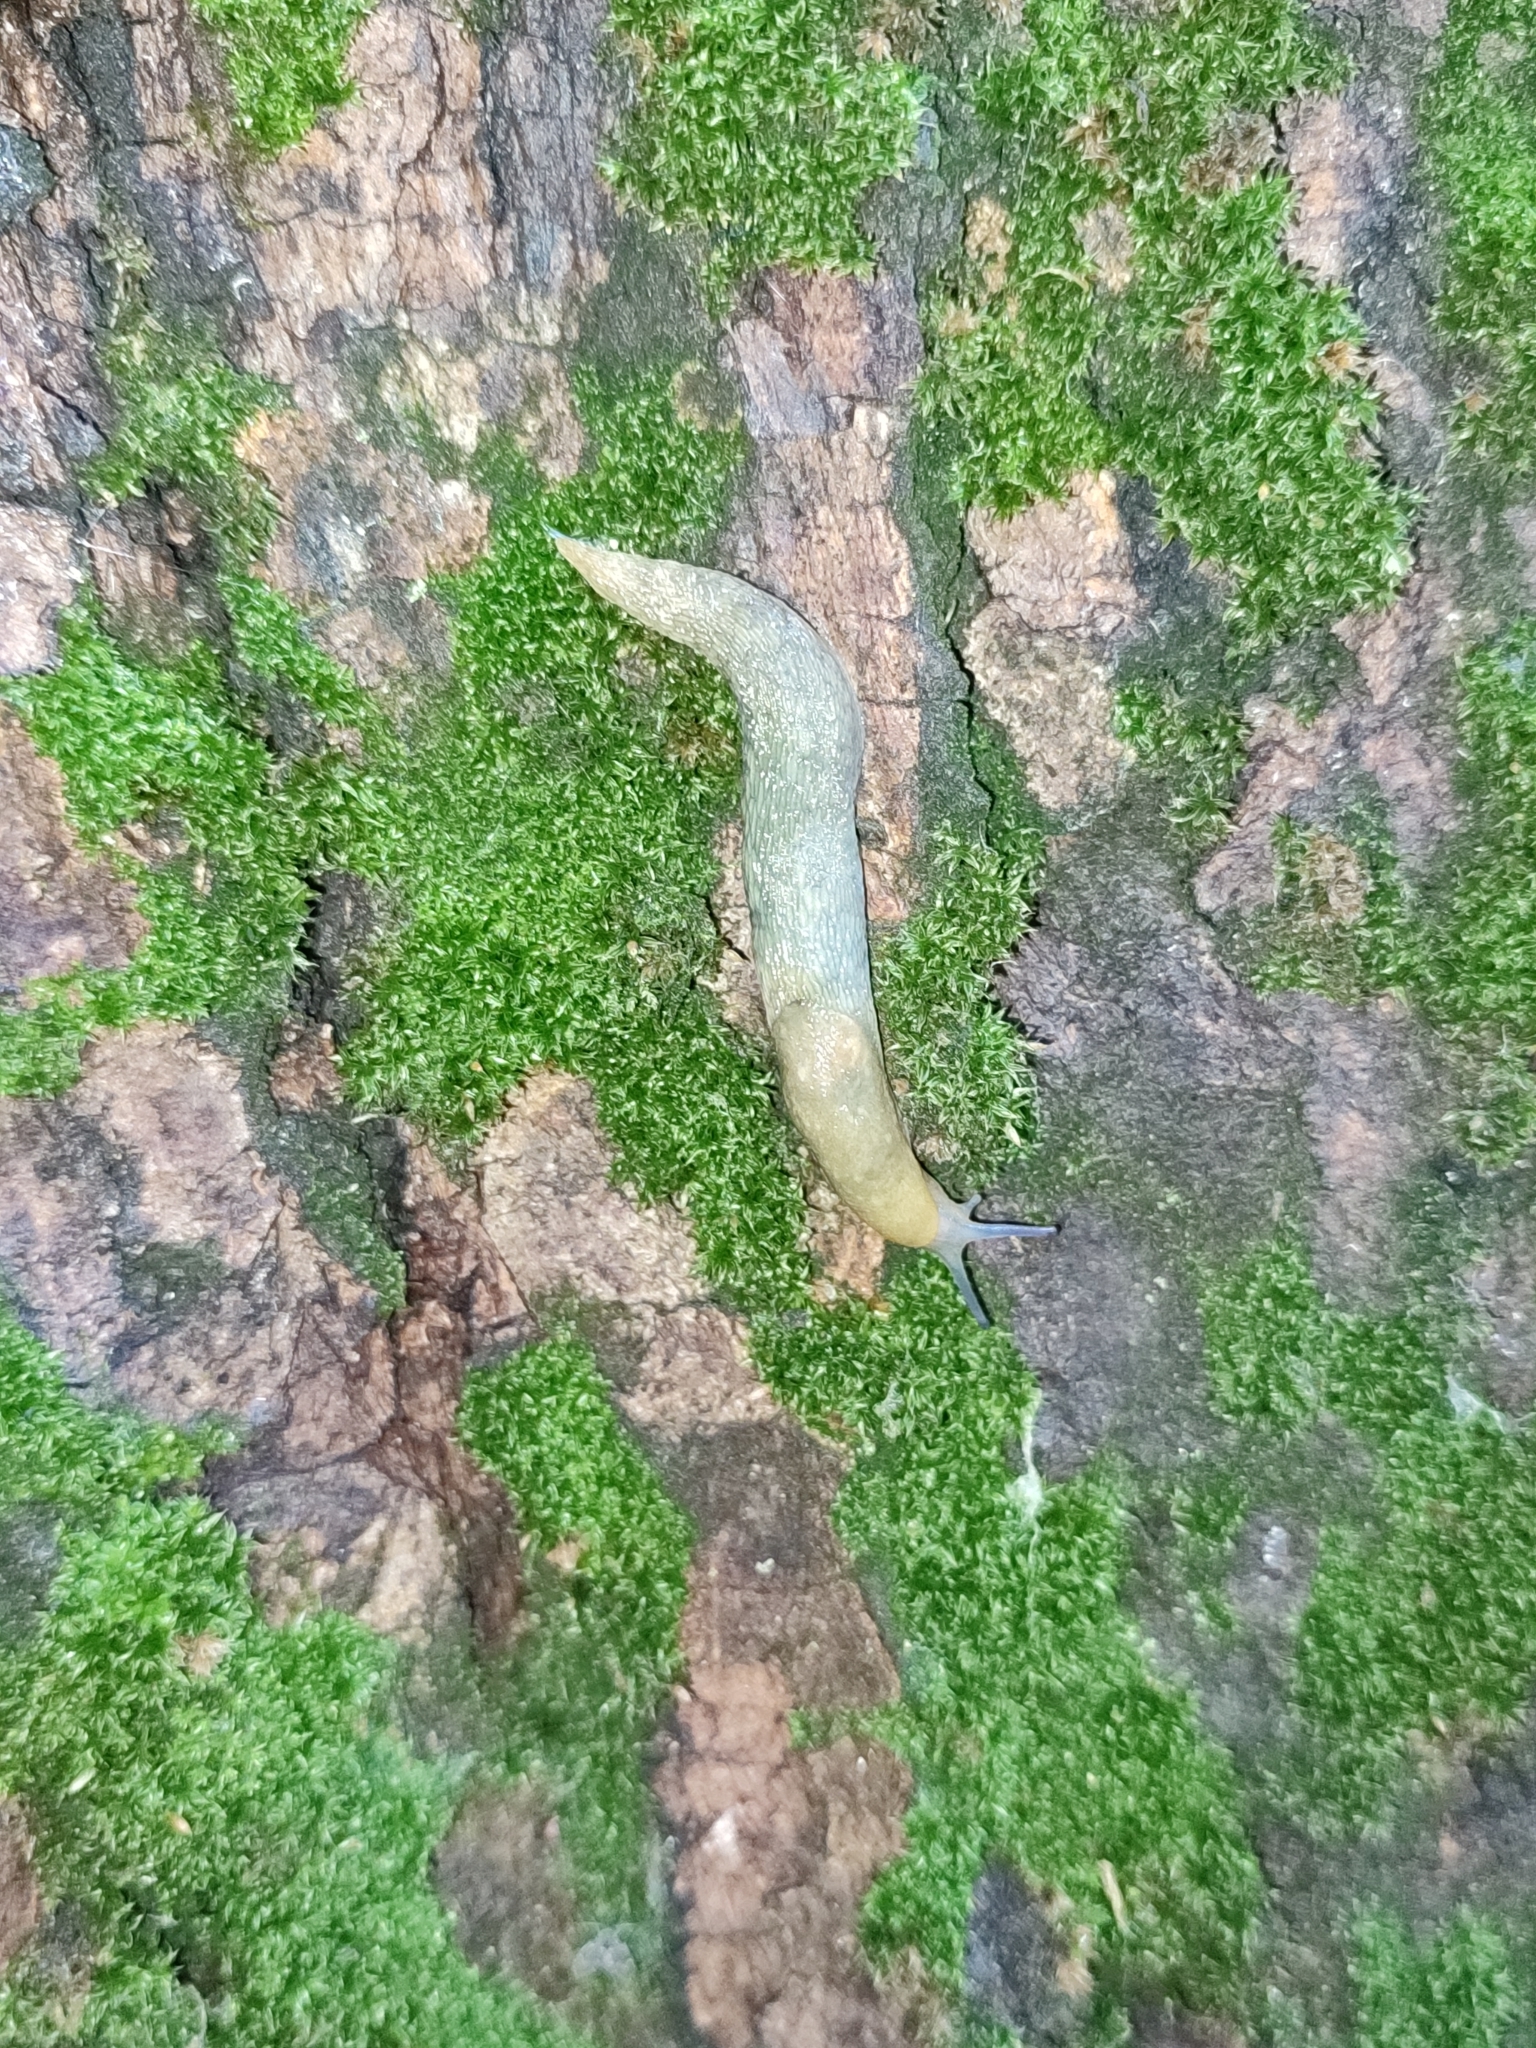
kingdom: Animalia
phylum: Mollusca
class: Gastropoda
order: Stylommatophora
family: Limacidae
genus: Limacus
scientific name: Limacus flavus
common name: Yellow gardenslug
